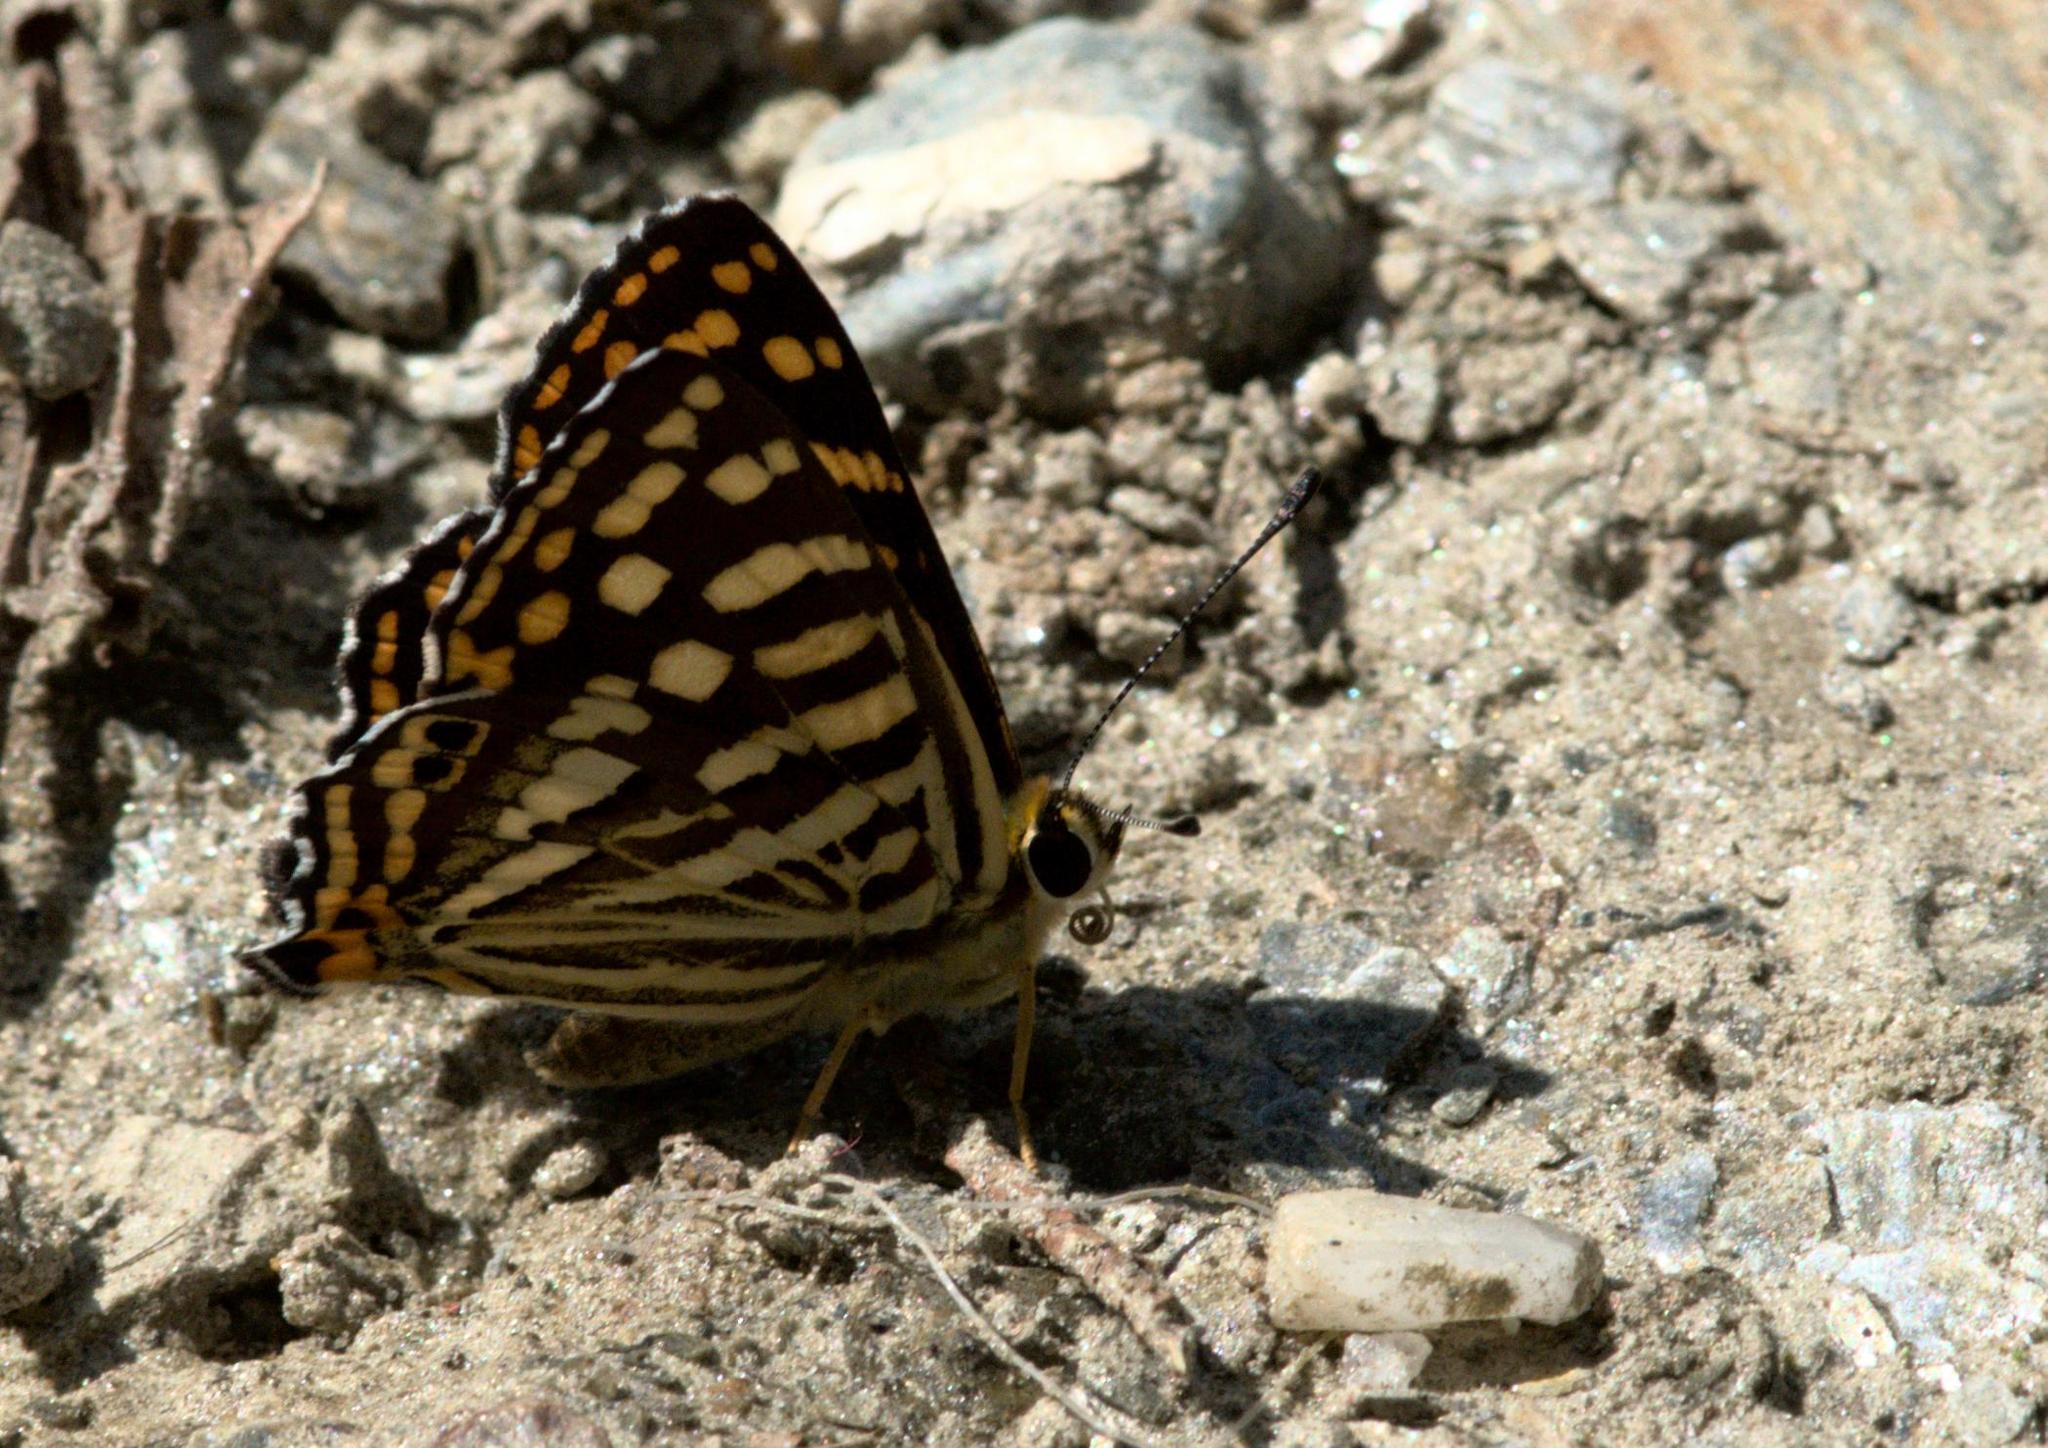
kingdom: Animalia
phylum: Arthropoda
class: Insecta
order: Lepidoptera
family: Lycaenidae
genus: Dodona
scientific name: Dodona durga
